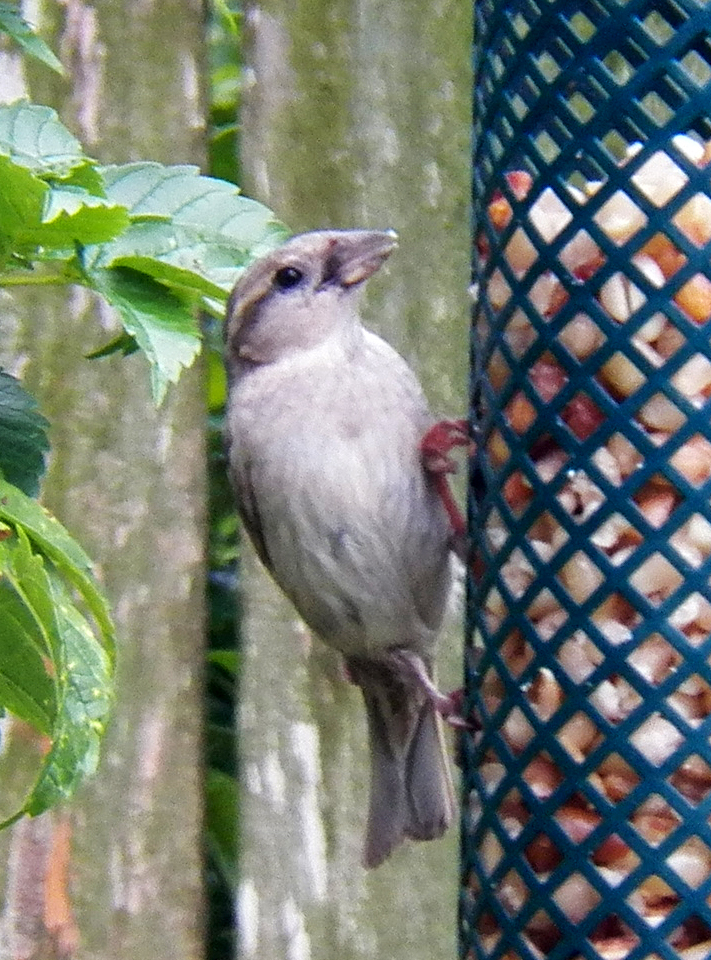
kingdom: Animalia
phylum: Chordata
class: Aves
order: Passeriformes
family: Passeridae
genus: Passer
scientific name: Passer domesticus
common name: House sparrow
